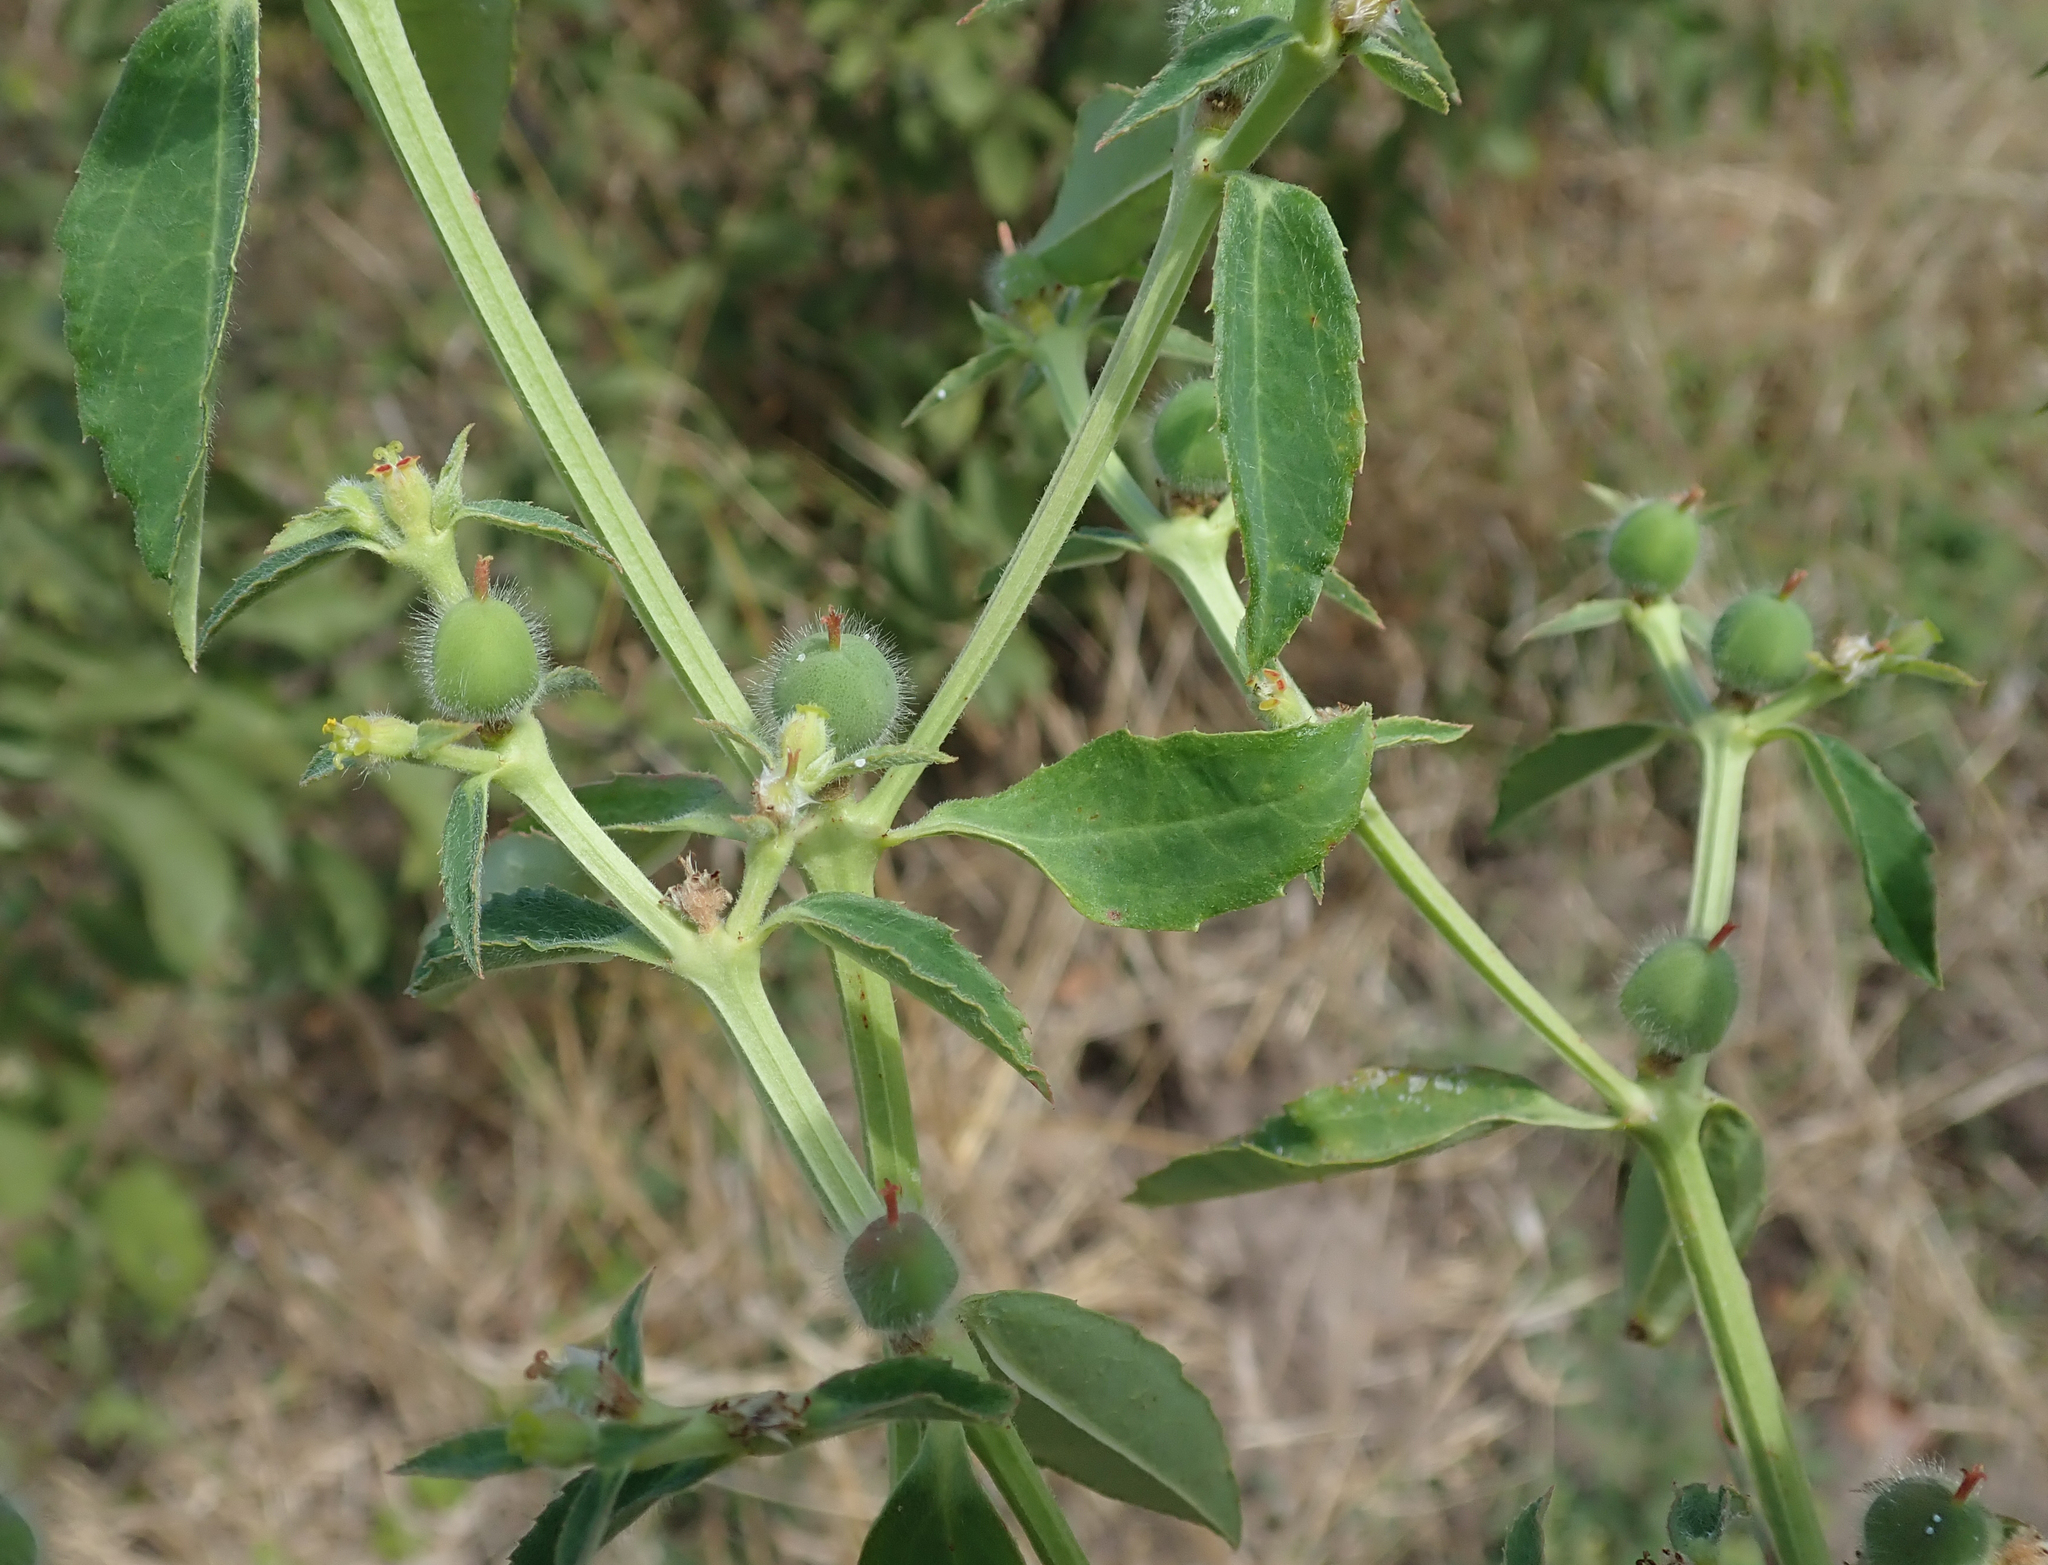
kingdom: Plantae
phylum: Tracheophyta
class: Magnoliopsida
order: Malpighiales
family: Euphorbiaceae
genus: Euphorbia
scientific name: Euphorbia crotonoides
